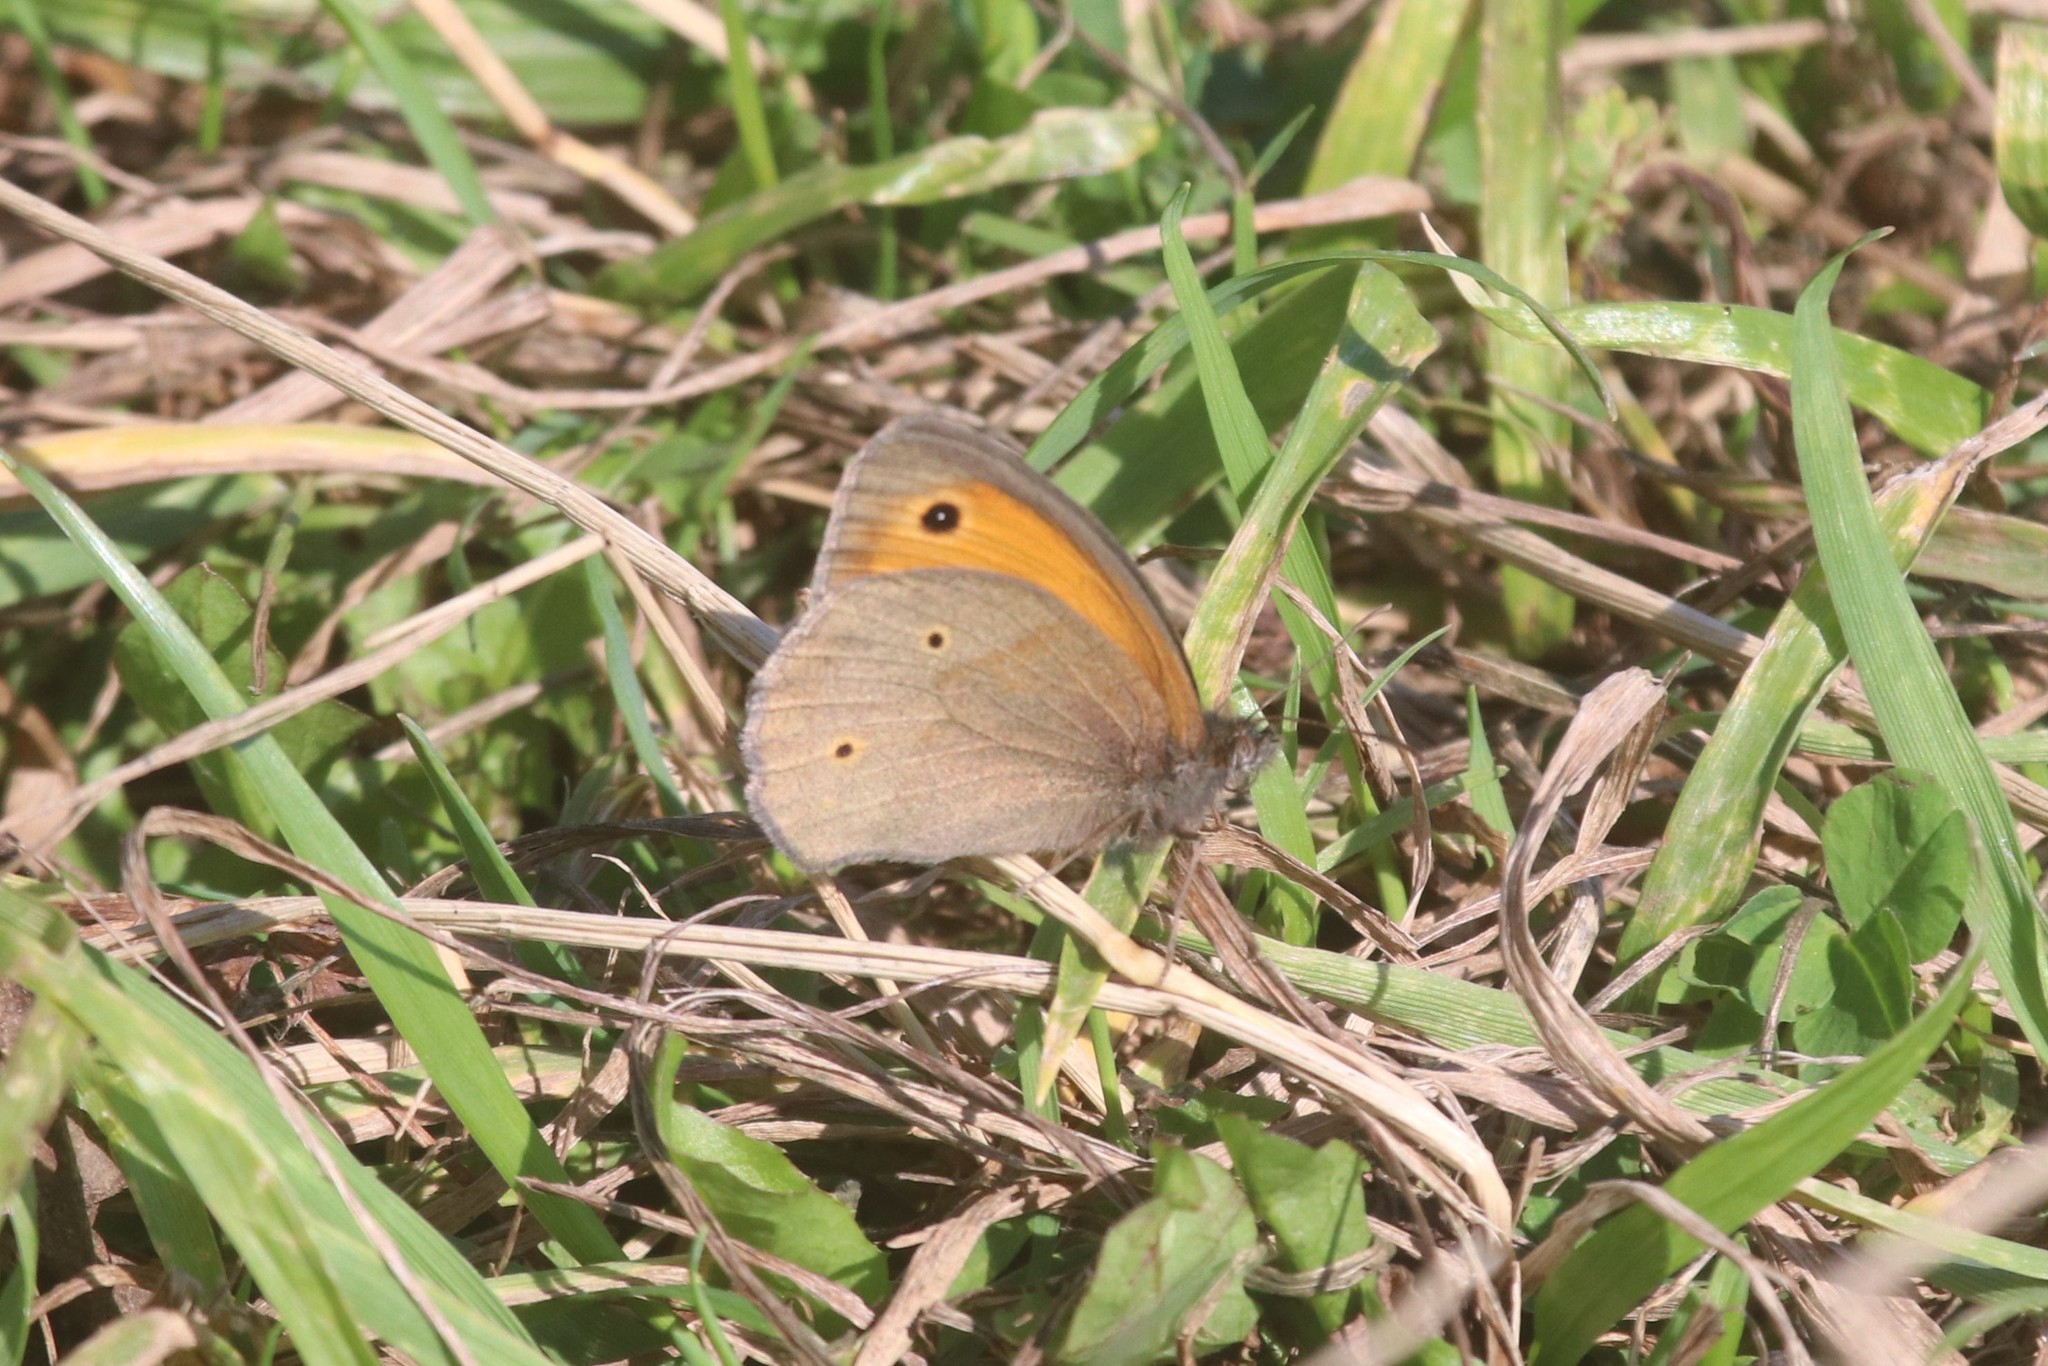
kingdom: Animalia
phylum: Arthropoda
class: Insecta
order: Lepidoptera
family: Nymphalidae
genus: Maniola
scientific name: Maniola jurtina
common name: Meadow brown
